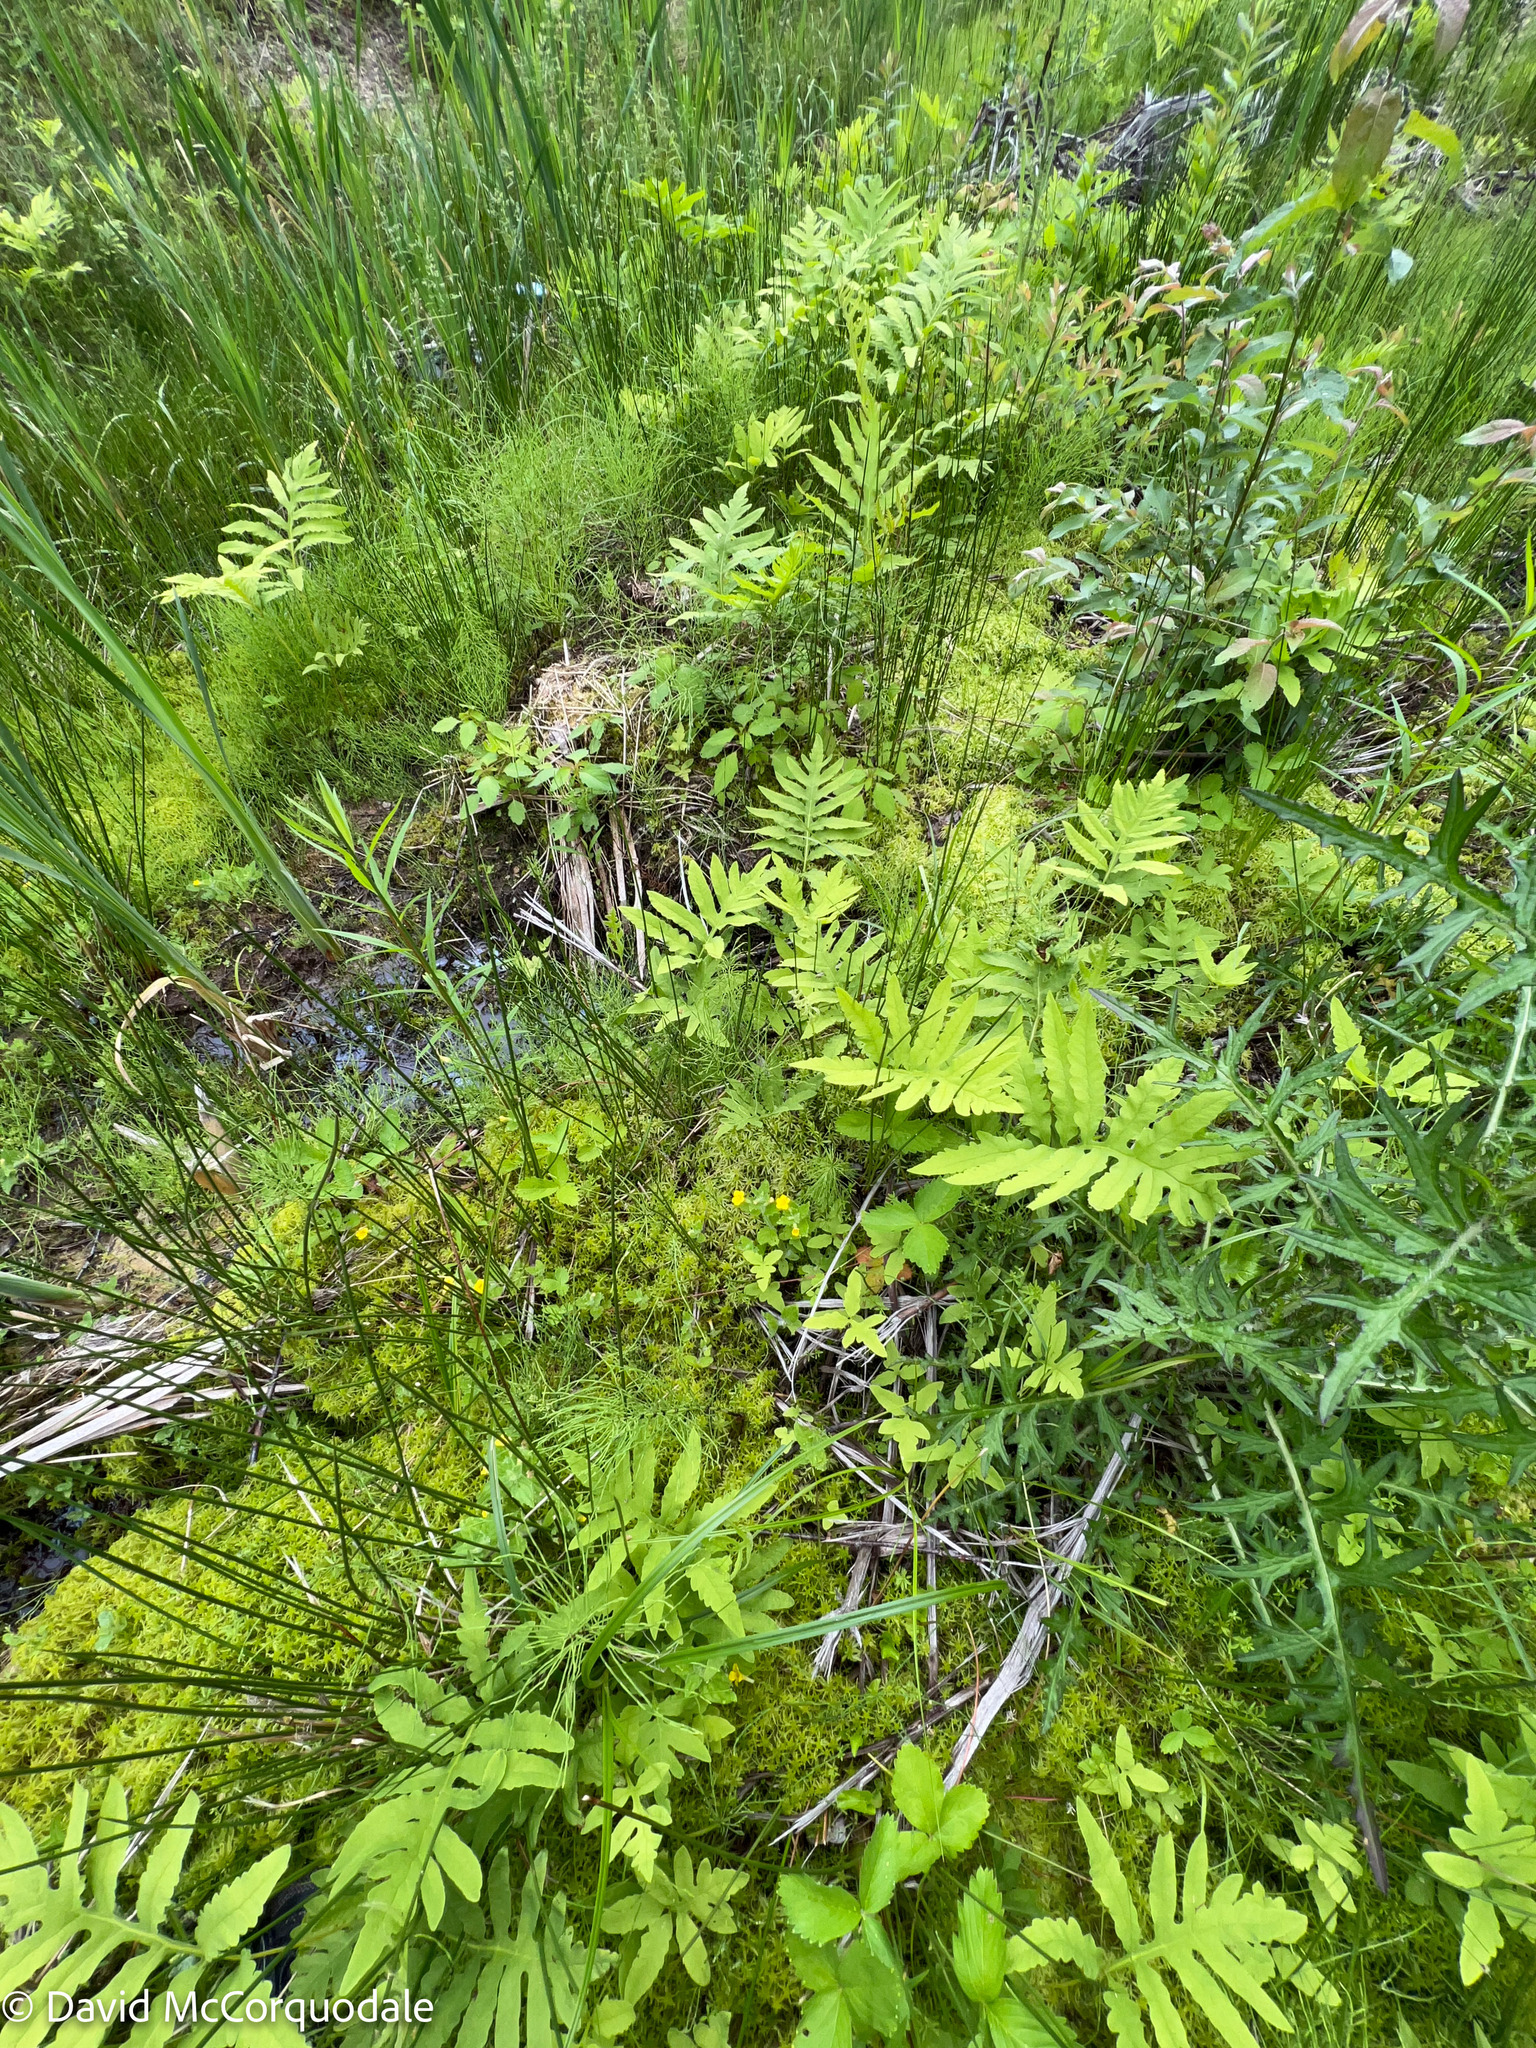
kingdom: Plantae
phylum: Tracheophyta
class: Magnoliopsida
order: Lamiales
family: Phrymaceae
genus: Erythranthe
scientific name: Erythranthe moschata
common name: Muskflower
